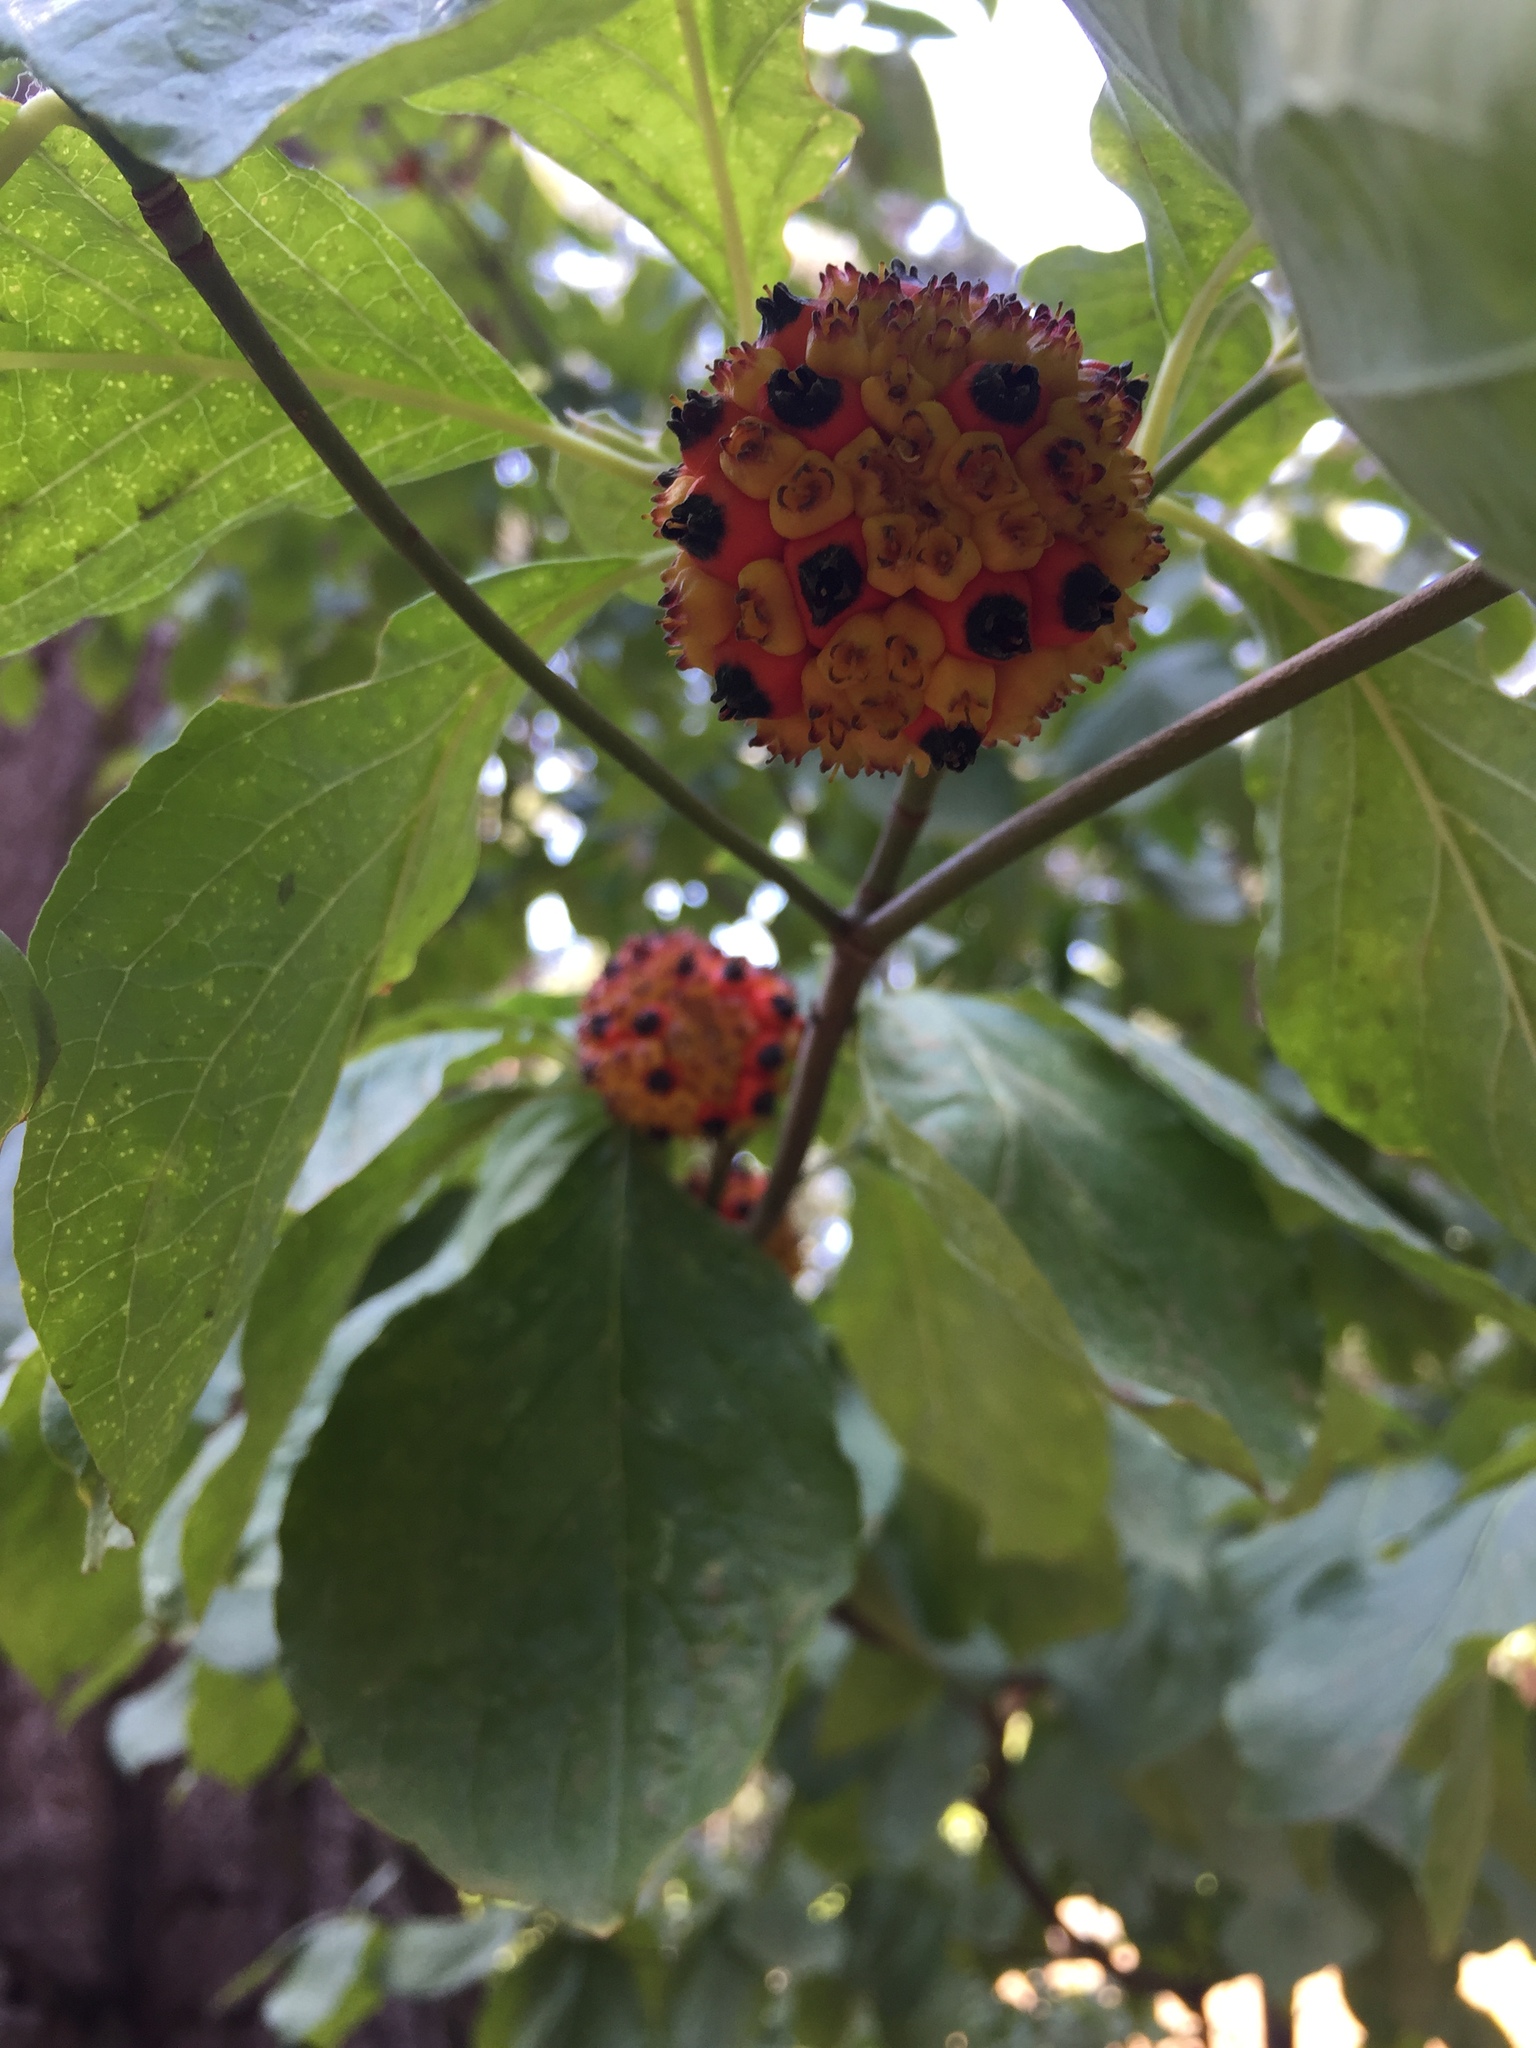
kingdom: Plantae
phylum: Tracheophyta
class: Magnoliopsida
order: Cornales
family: Cornaceae
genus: Cornus
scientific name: Cornus nuttallii
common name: Pacific dogwood
